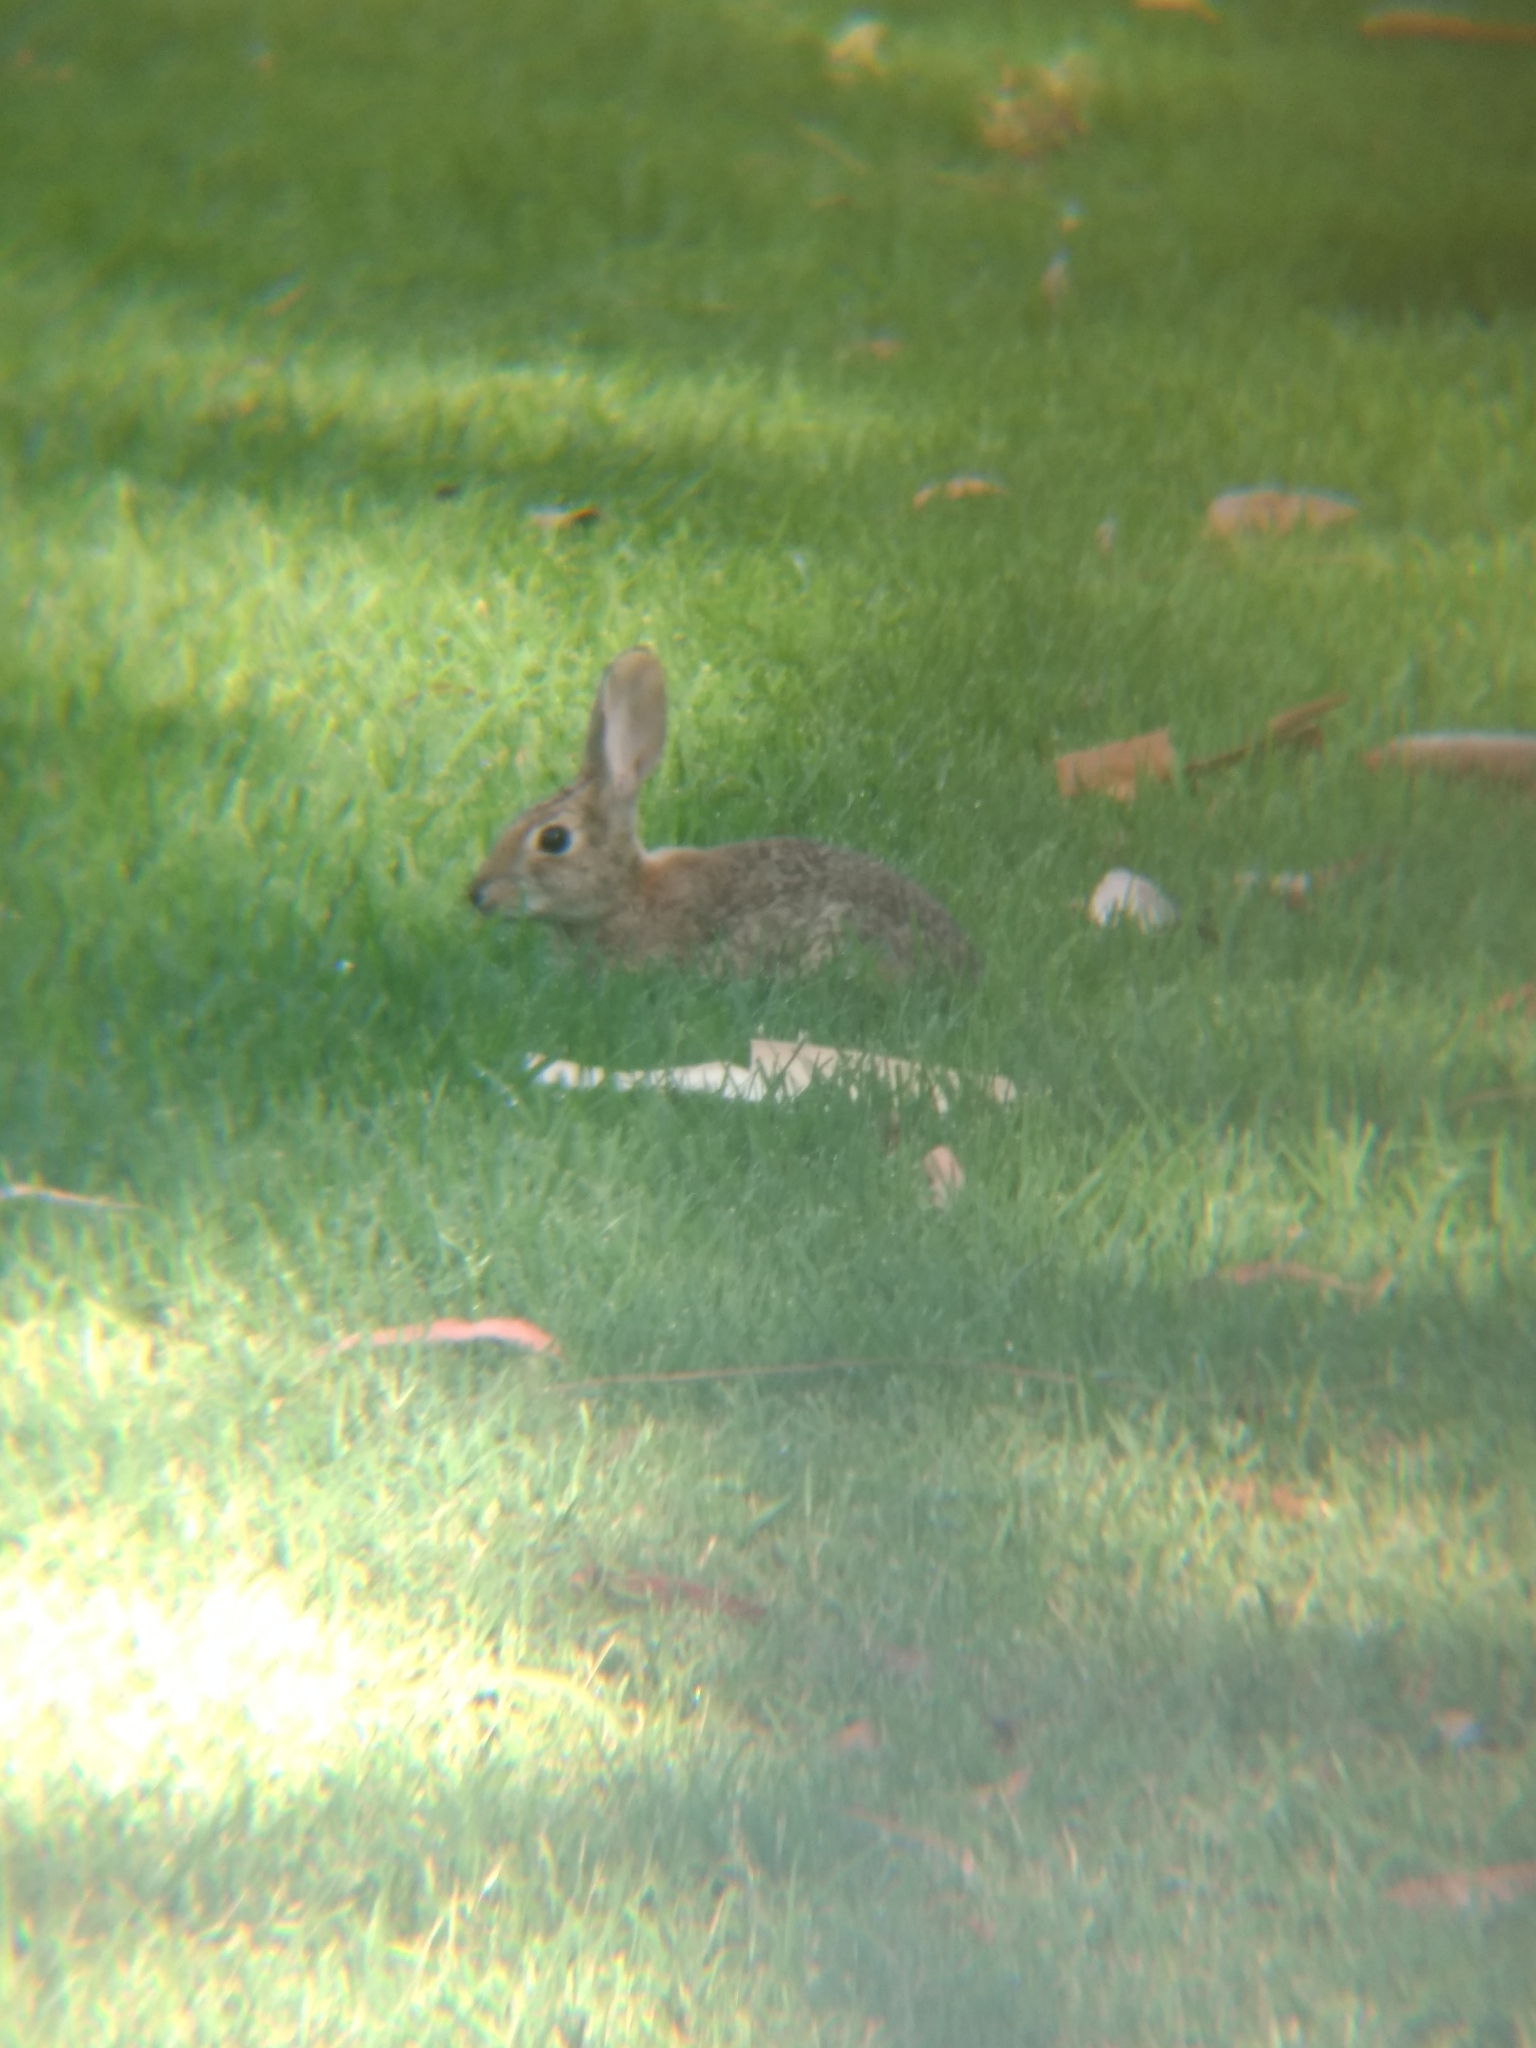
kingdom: Animalia
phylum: Chordata
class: Mammalia
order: Lagomorpha
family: Leporidae
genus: Sylvilagus
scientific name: Sylvilagus audubonii
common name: Desert cottontail
